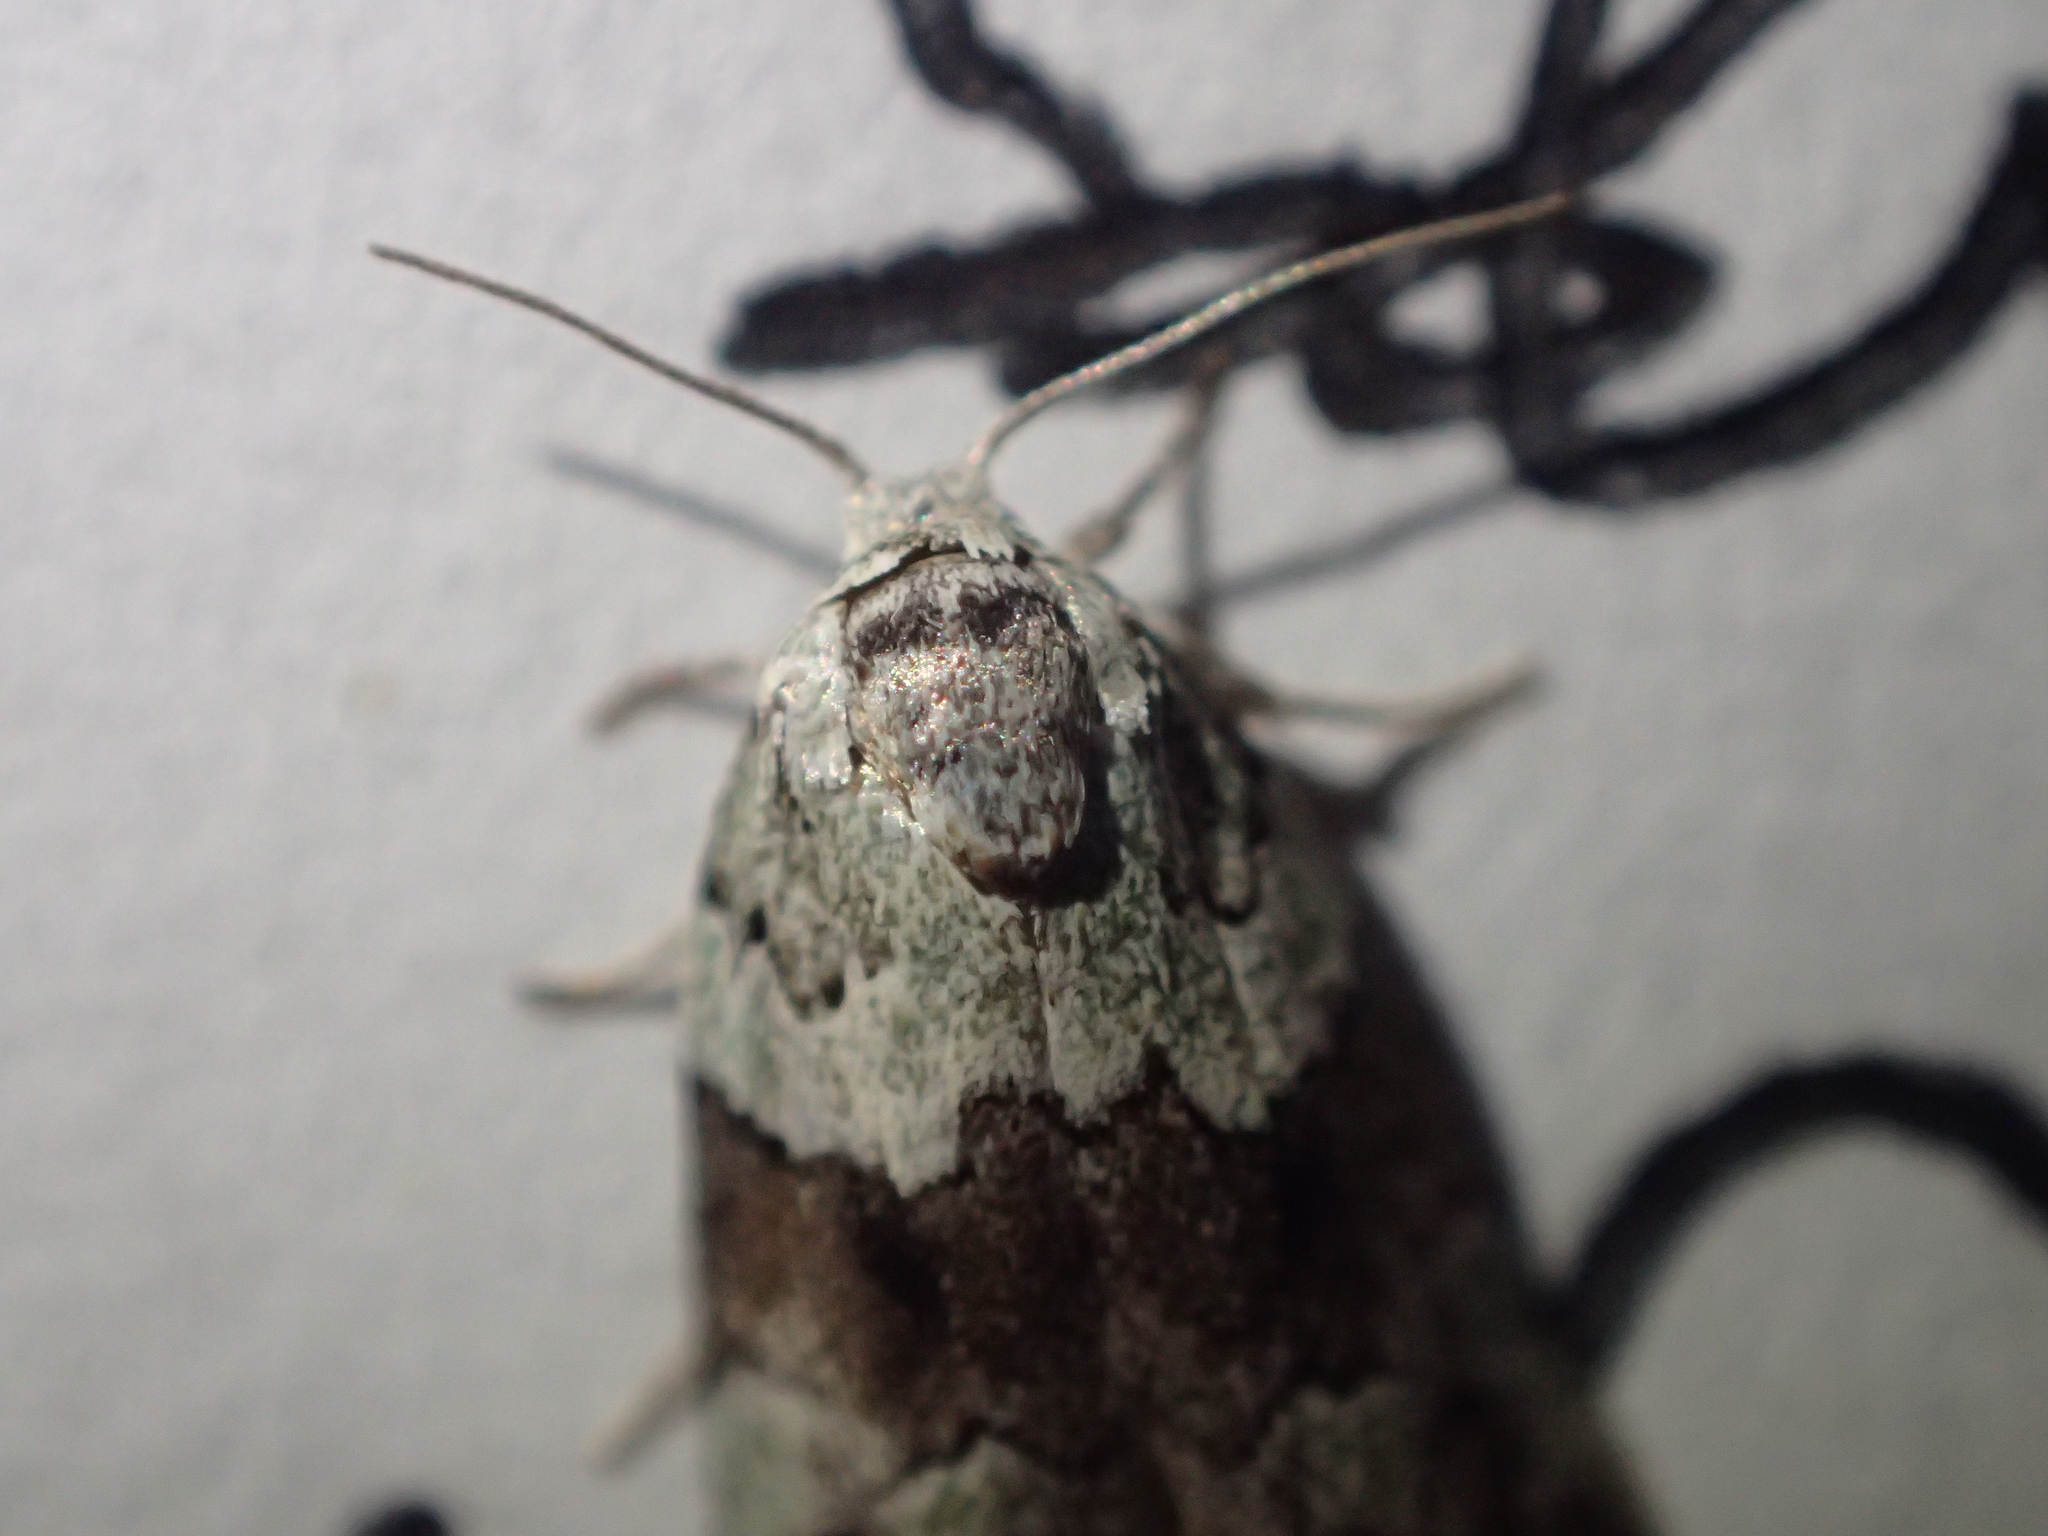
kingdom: Animalia
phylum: Arthropoda
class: Insecta
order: Lepidoptera
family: Nolidae
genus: Afrida
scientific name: Afrida ydatodes
